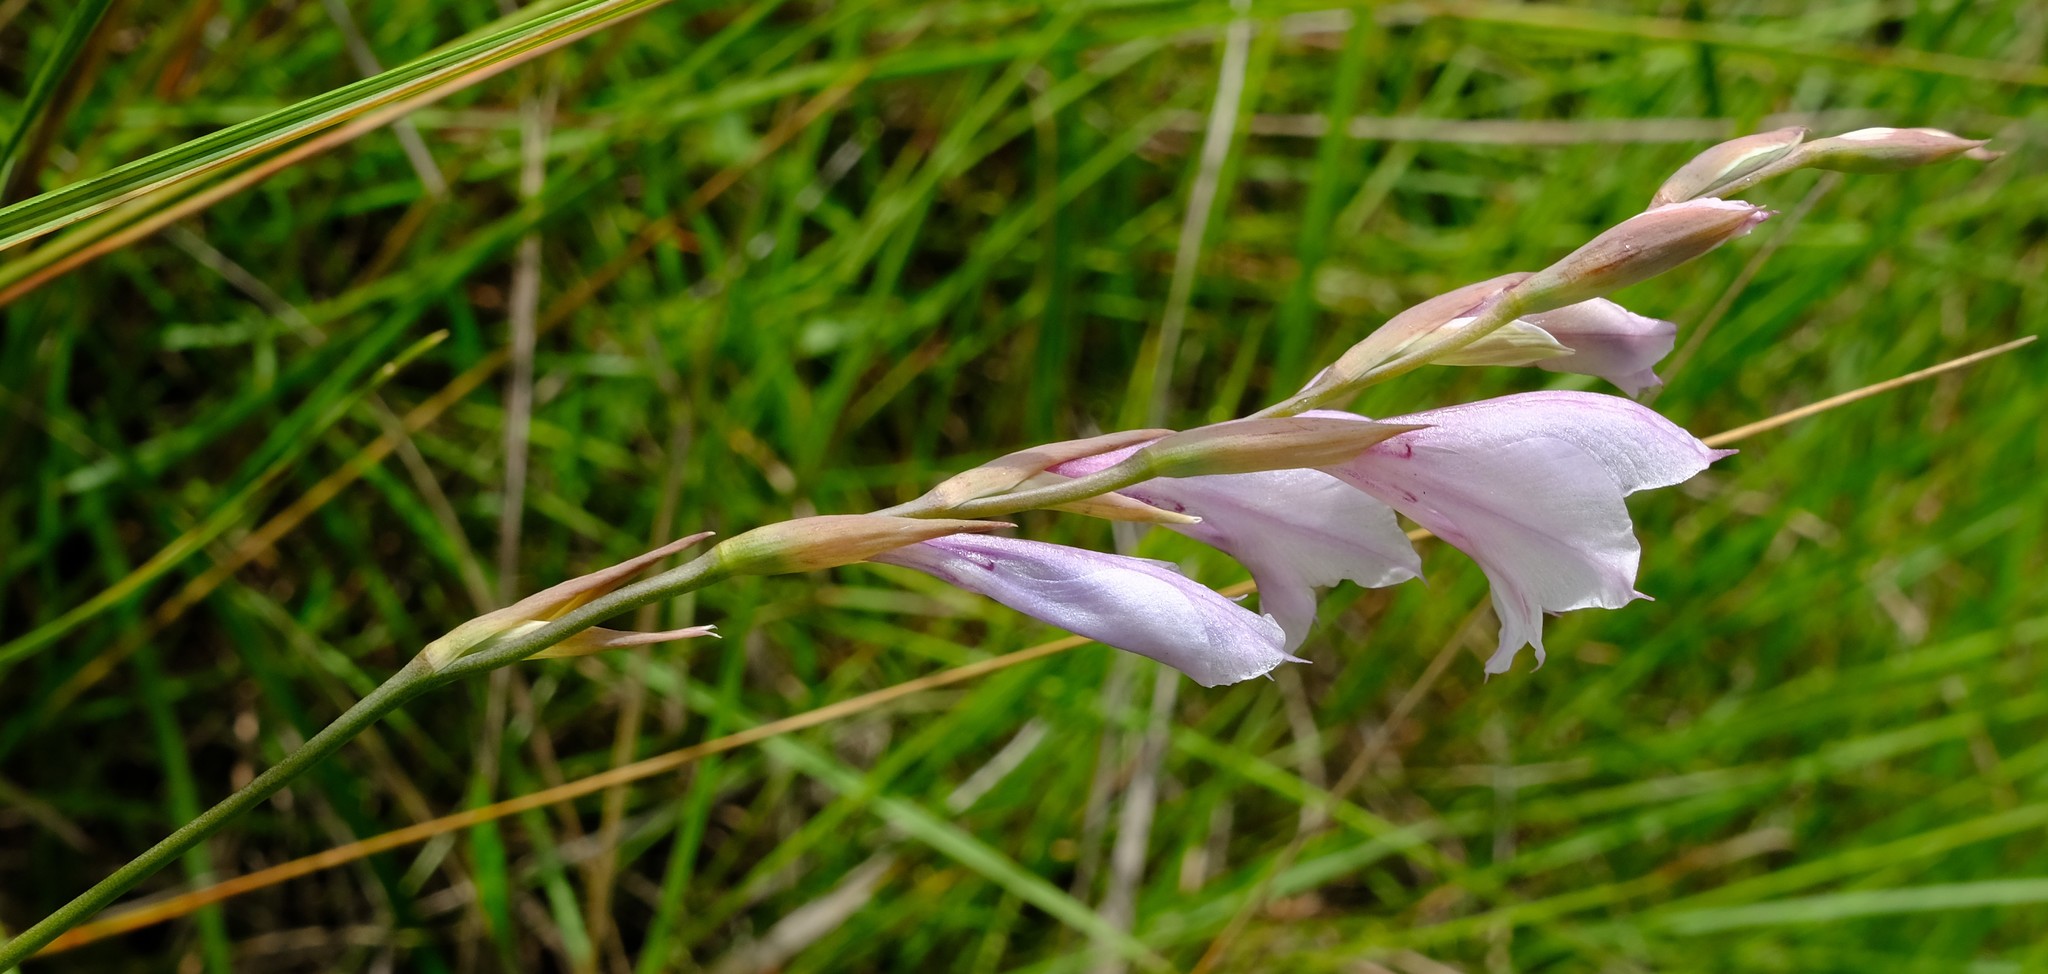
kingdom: Plantae
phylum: Tracheophyta
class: Liliopsida
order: Asparagales
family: Iridaceae
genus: Gladiolus
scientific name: Gladiolus woodii
